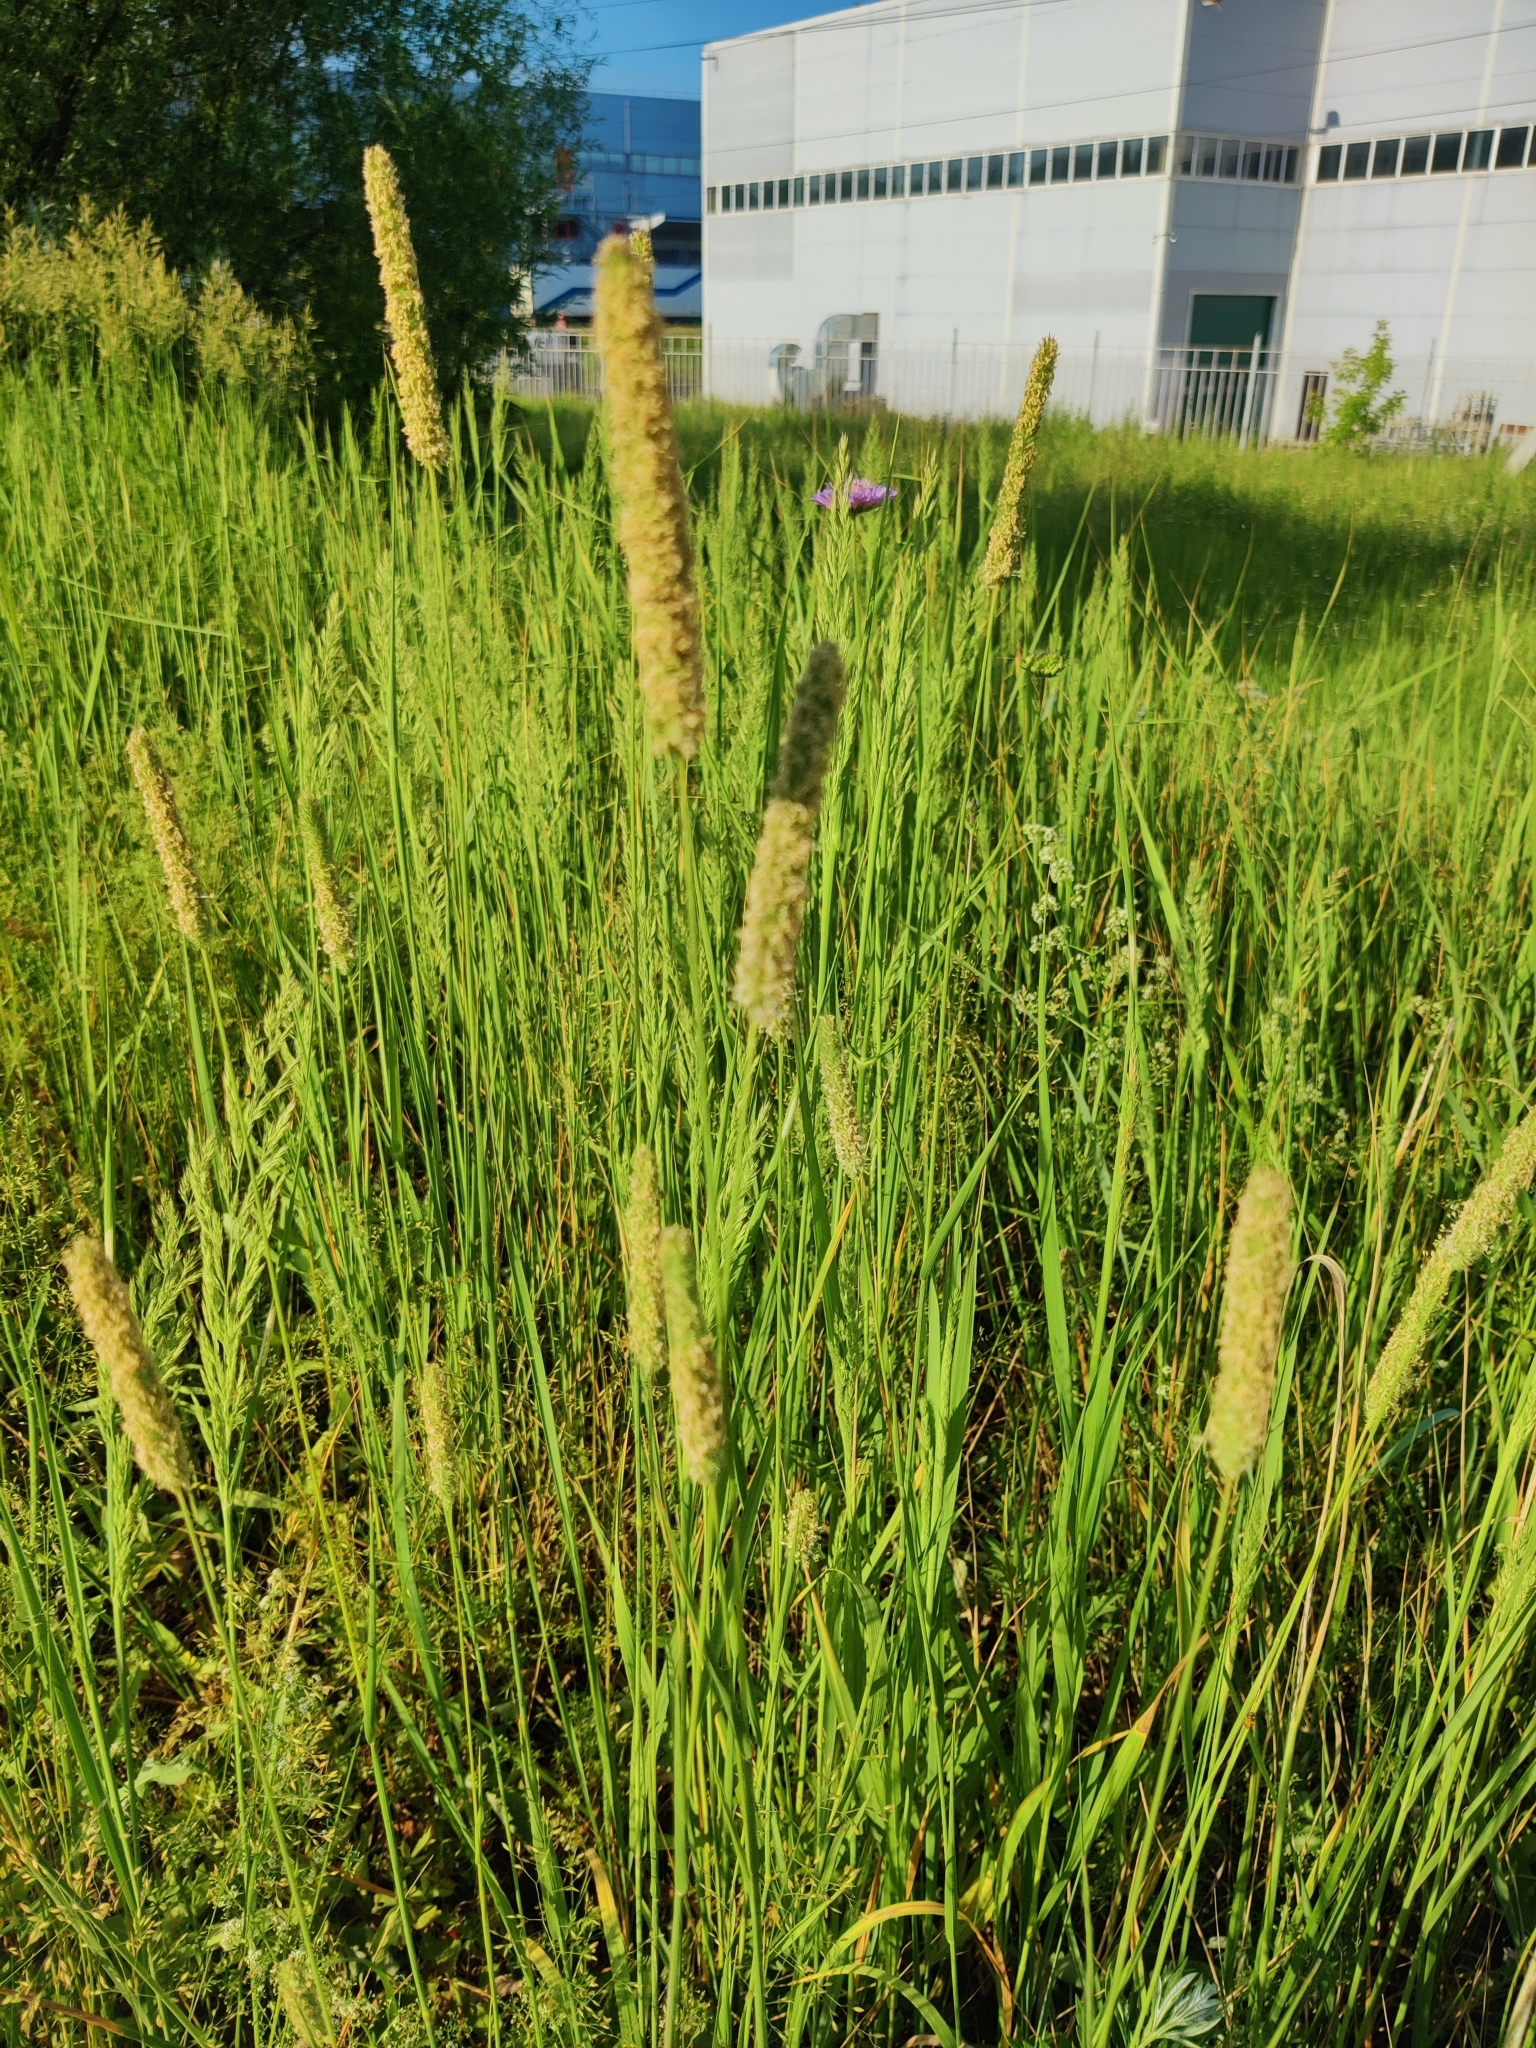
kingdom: Plantae
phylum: Tracheophyta
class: Liliopsida
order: Poales
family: Poaceae
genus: Phleum
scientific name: Phleum pratense
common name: Timothy grass
